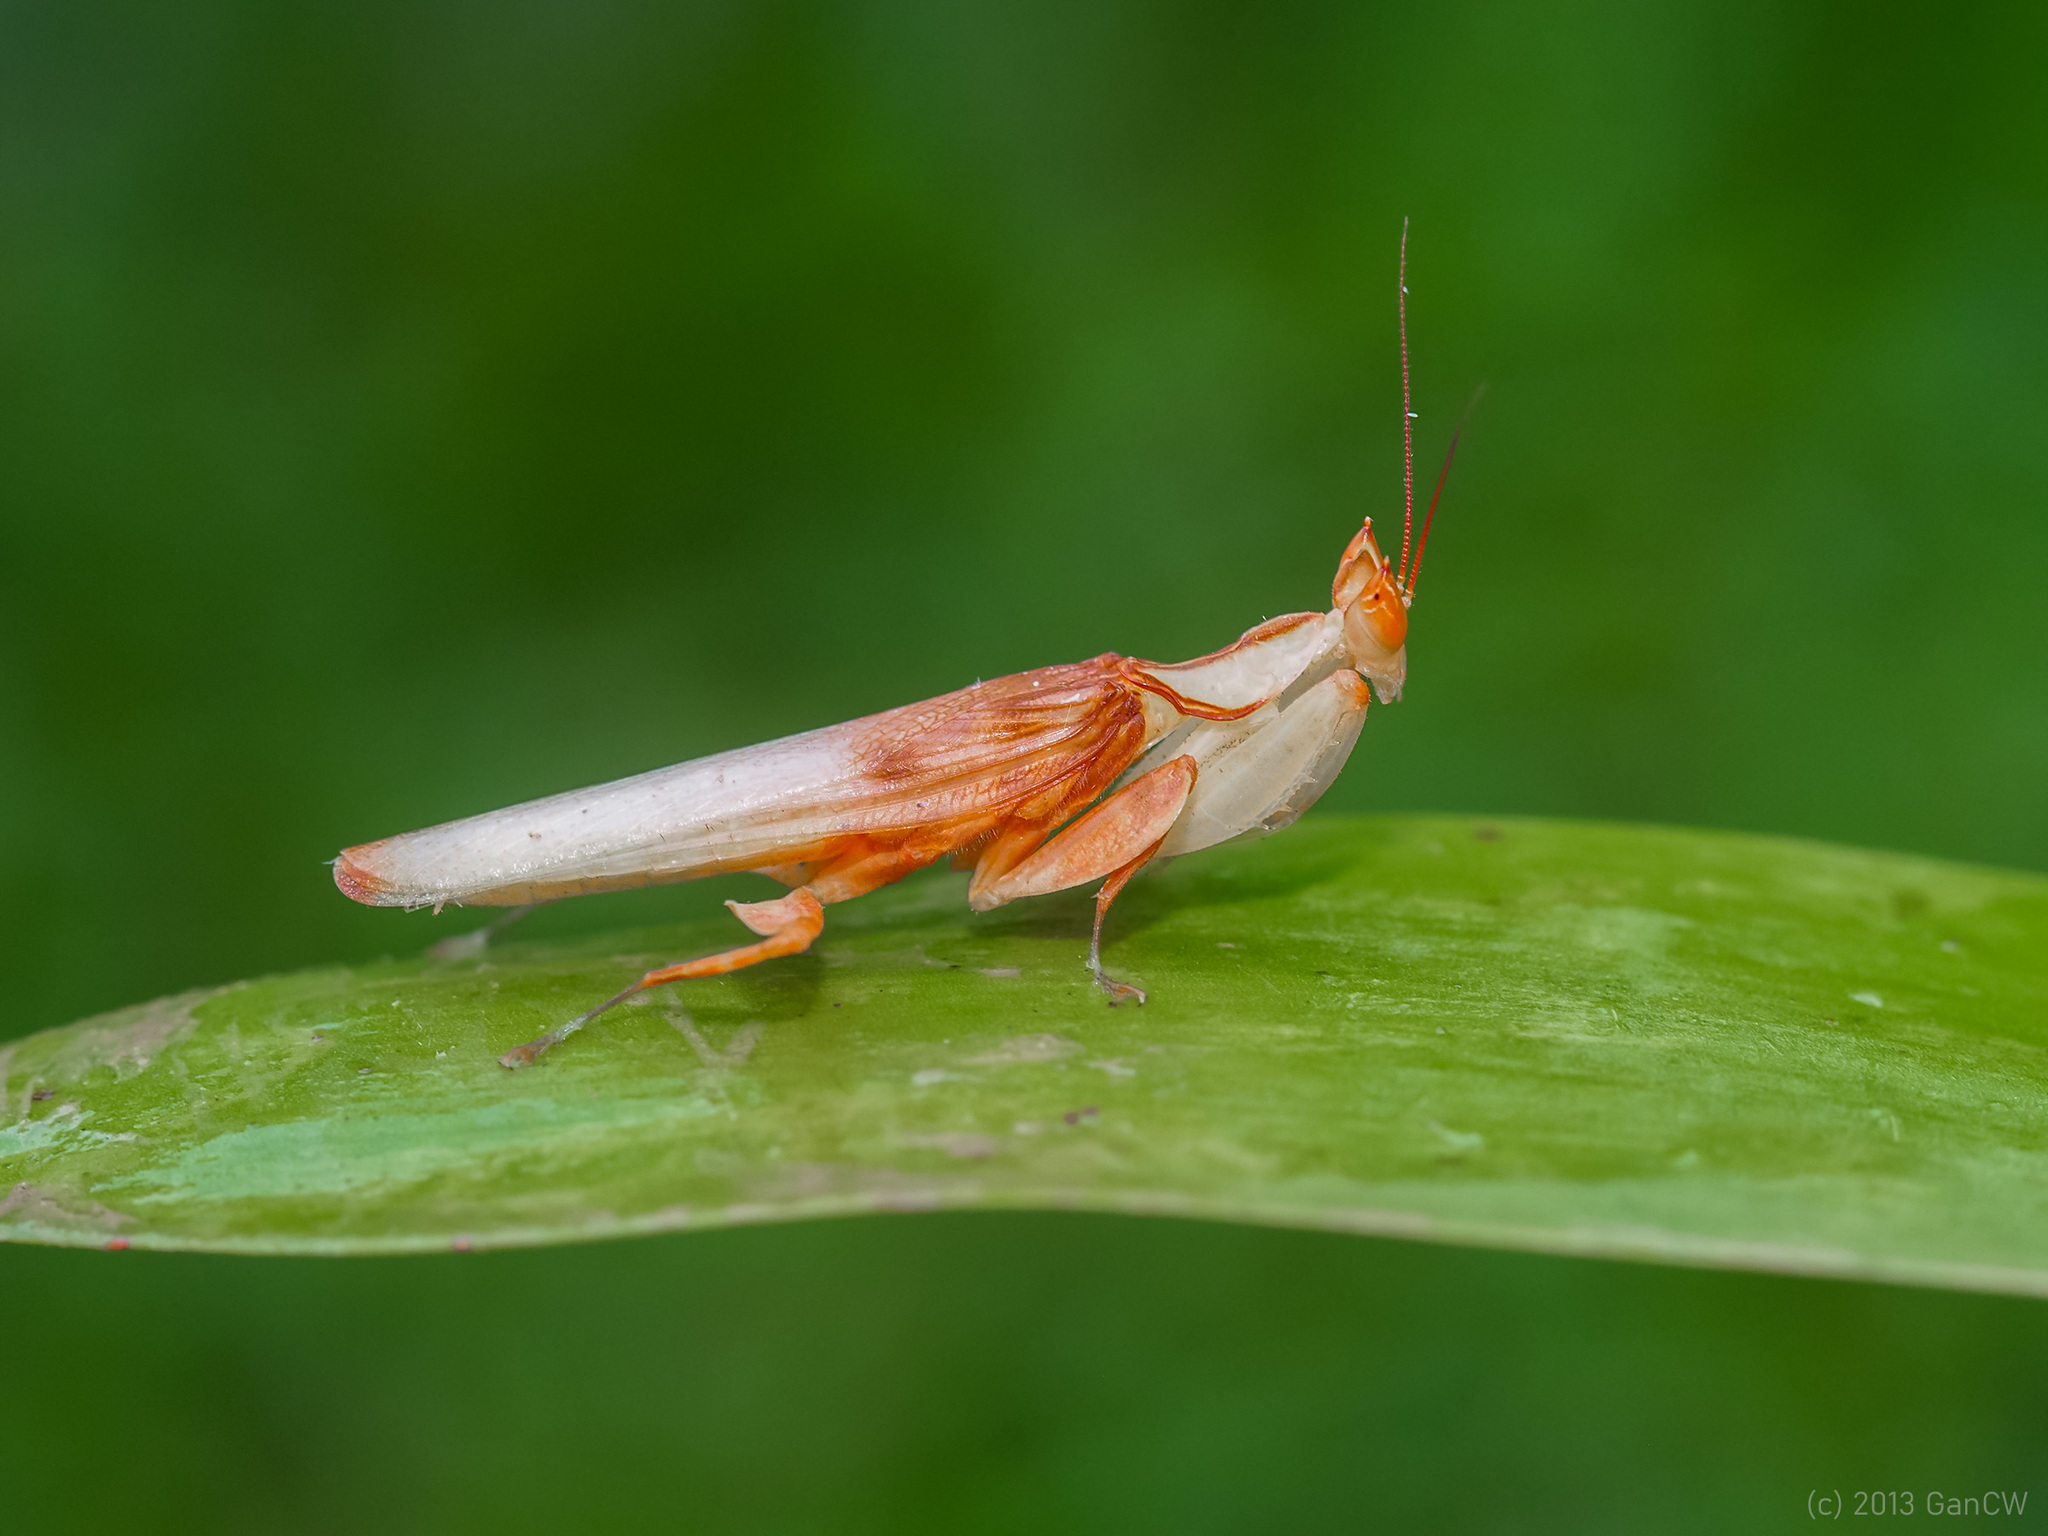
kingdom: Animalia
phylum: Arthropoda
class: Insecta
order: Mantodea
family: Hymenopodidae
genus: Hymenopus
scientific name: Hymenopus coronatus
